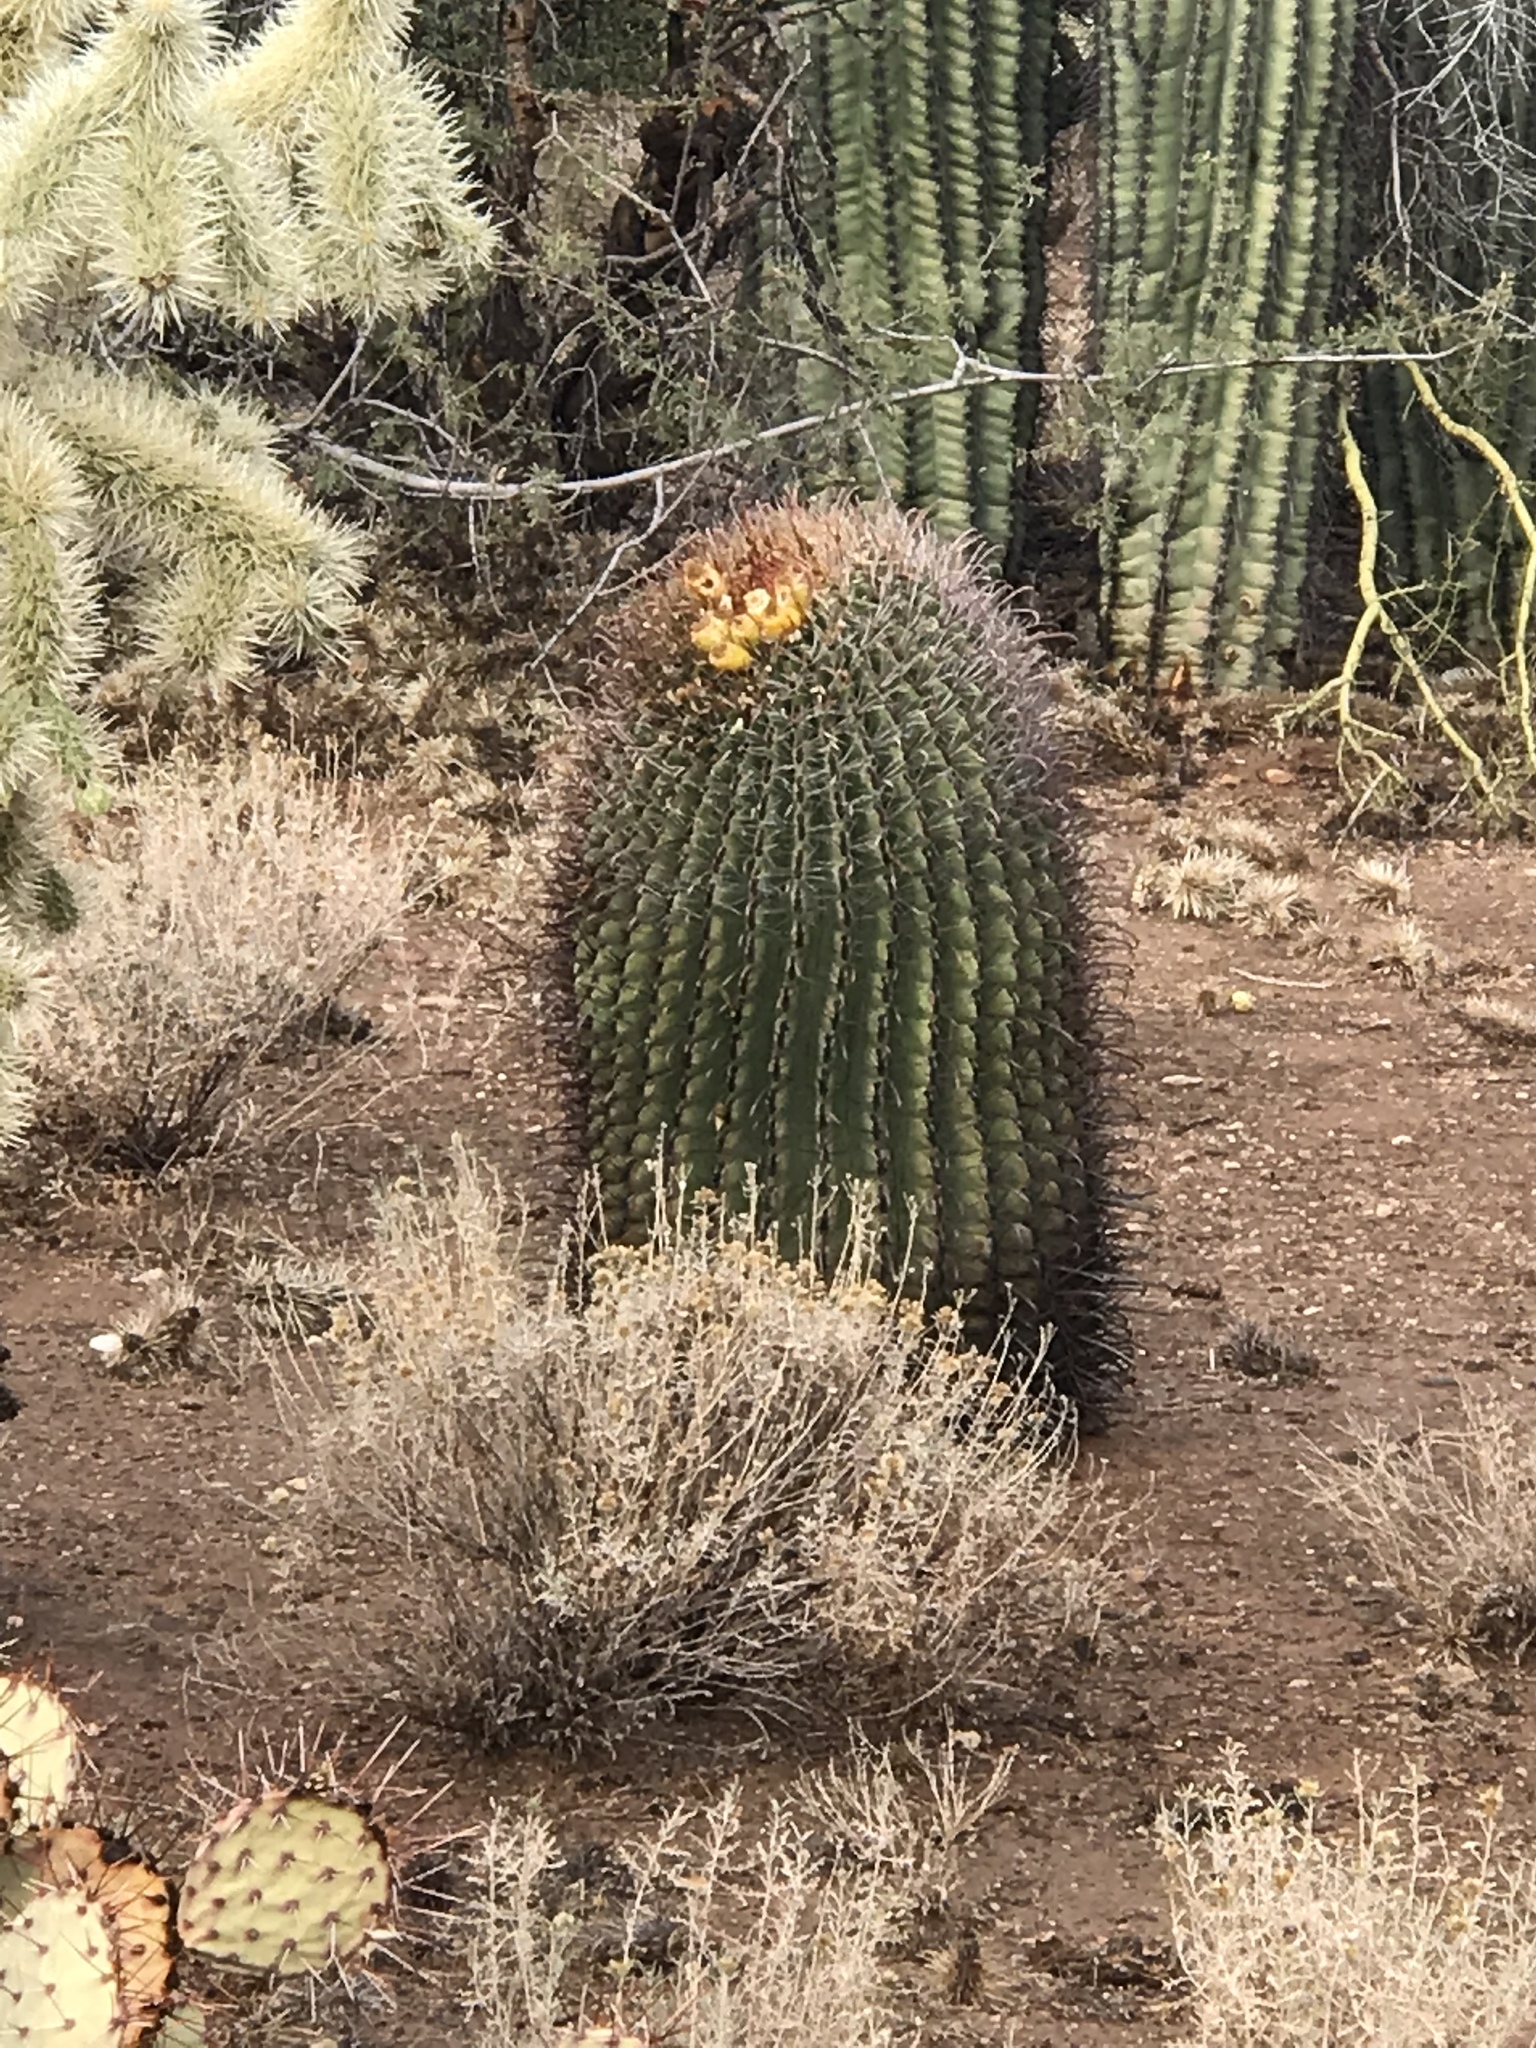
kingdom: Plantae
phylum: Tracheophyta
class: Magnoliopsida
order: Caryophyllales
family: Cactaceae
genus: Ferocactus
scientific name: Ferocactus wislizeni
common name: Candy barrel cactus
